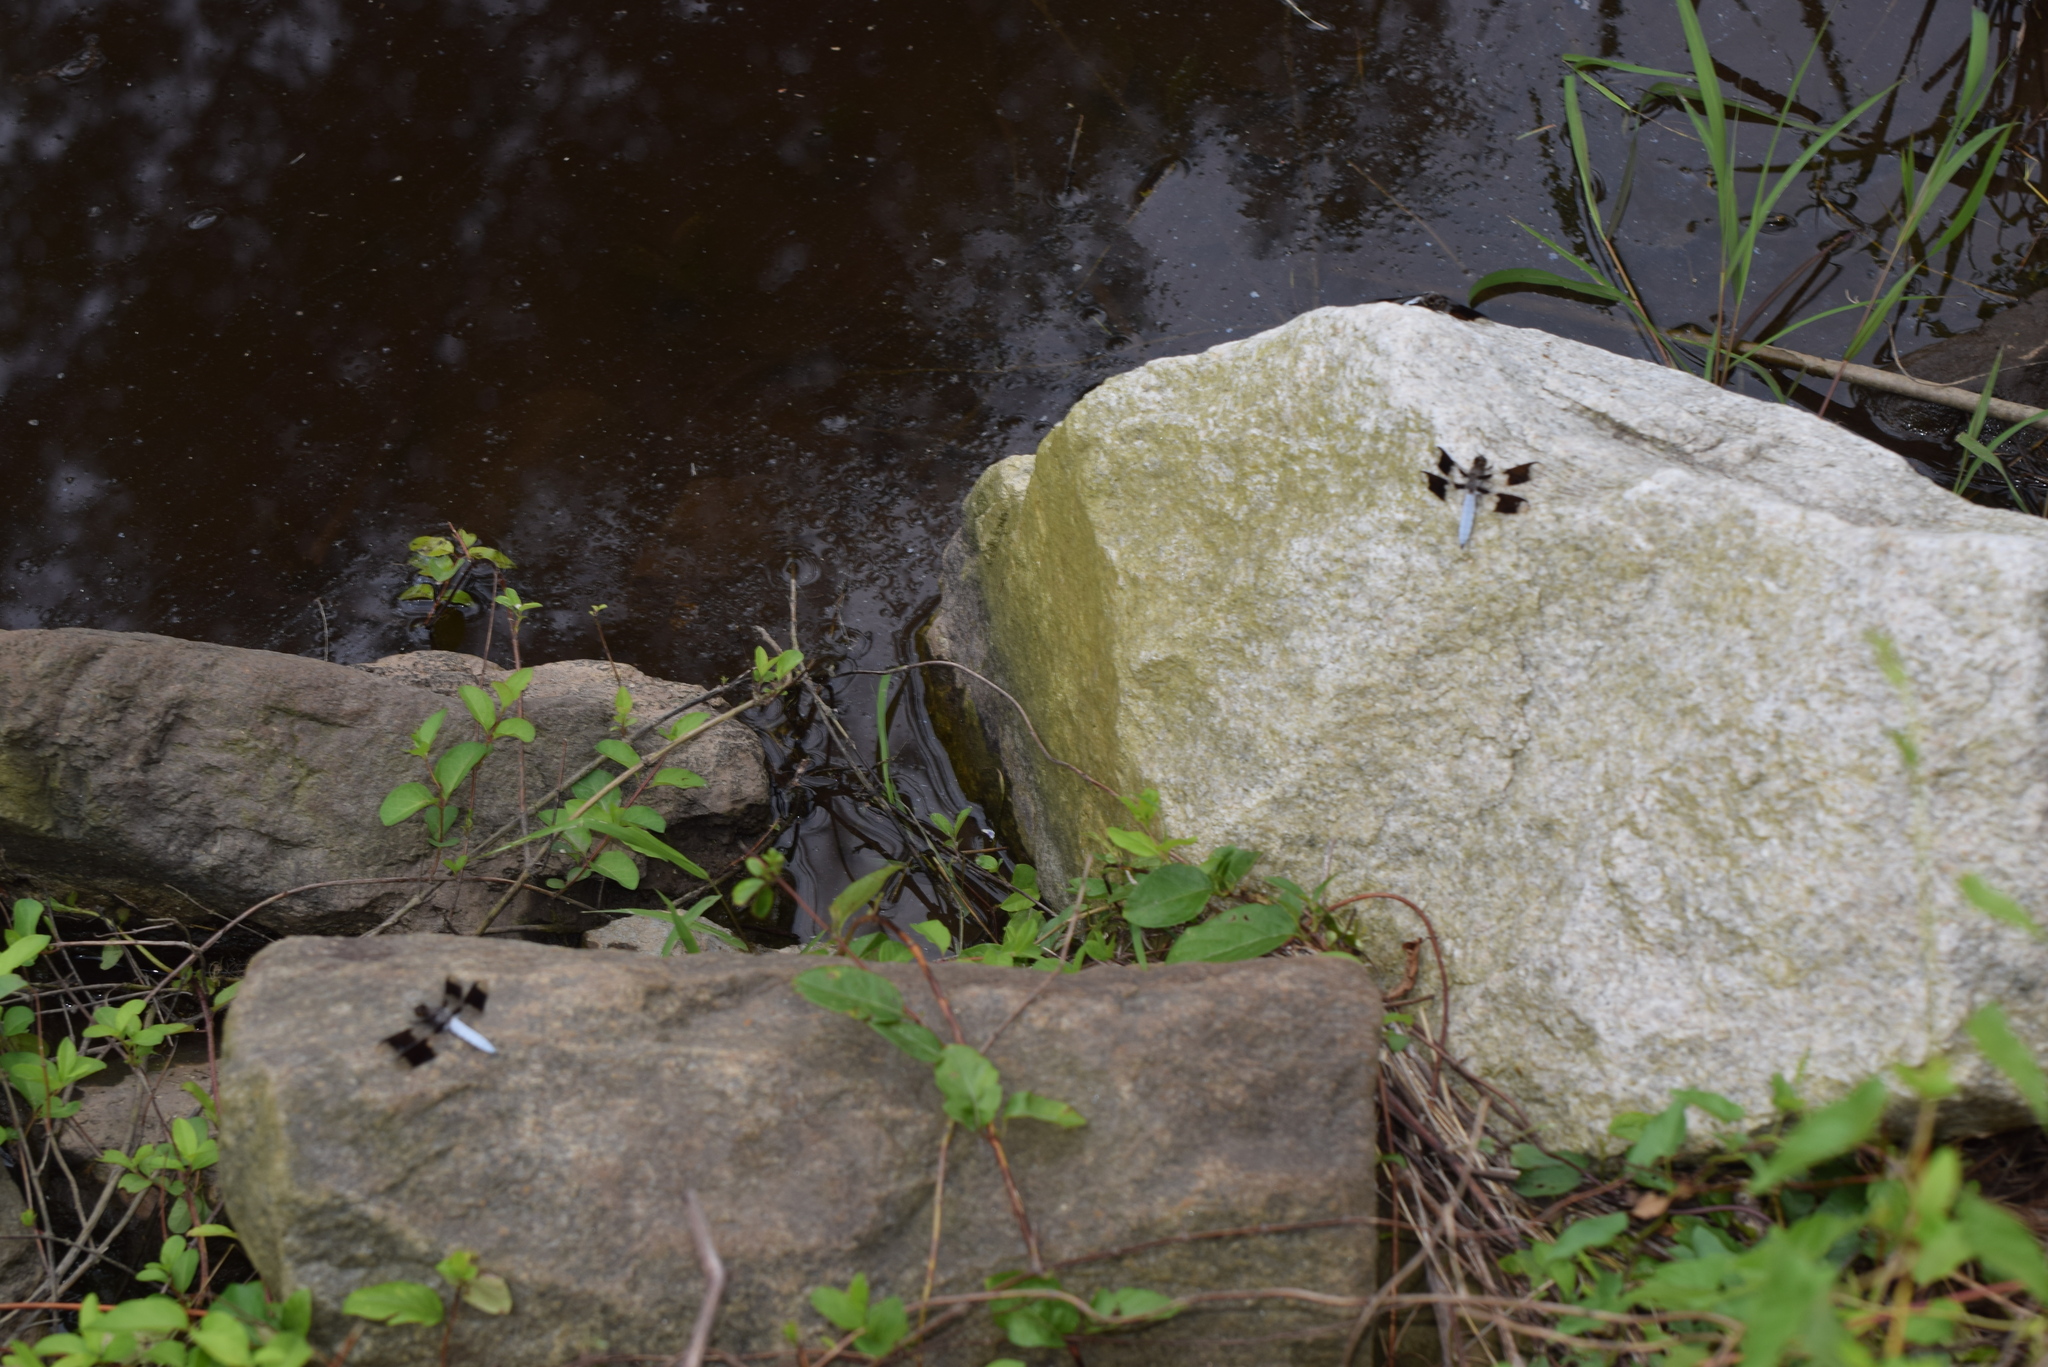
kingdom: Animalia
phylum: Arthropoda
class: Insecta
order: Odonata
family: Libellulidae
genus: Plathemis
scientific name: Plathemis lydia
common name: Common whitetail
